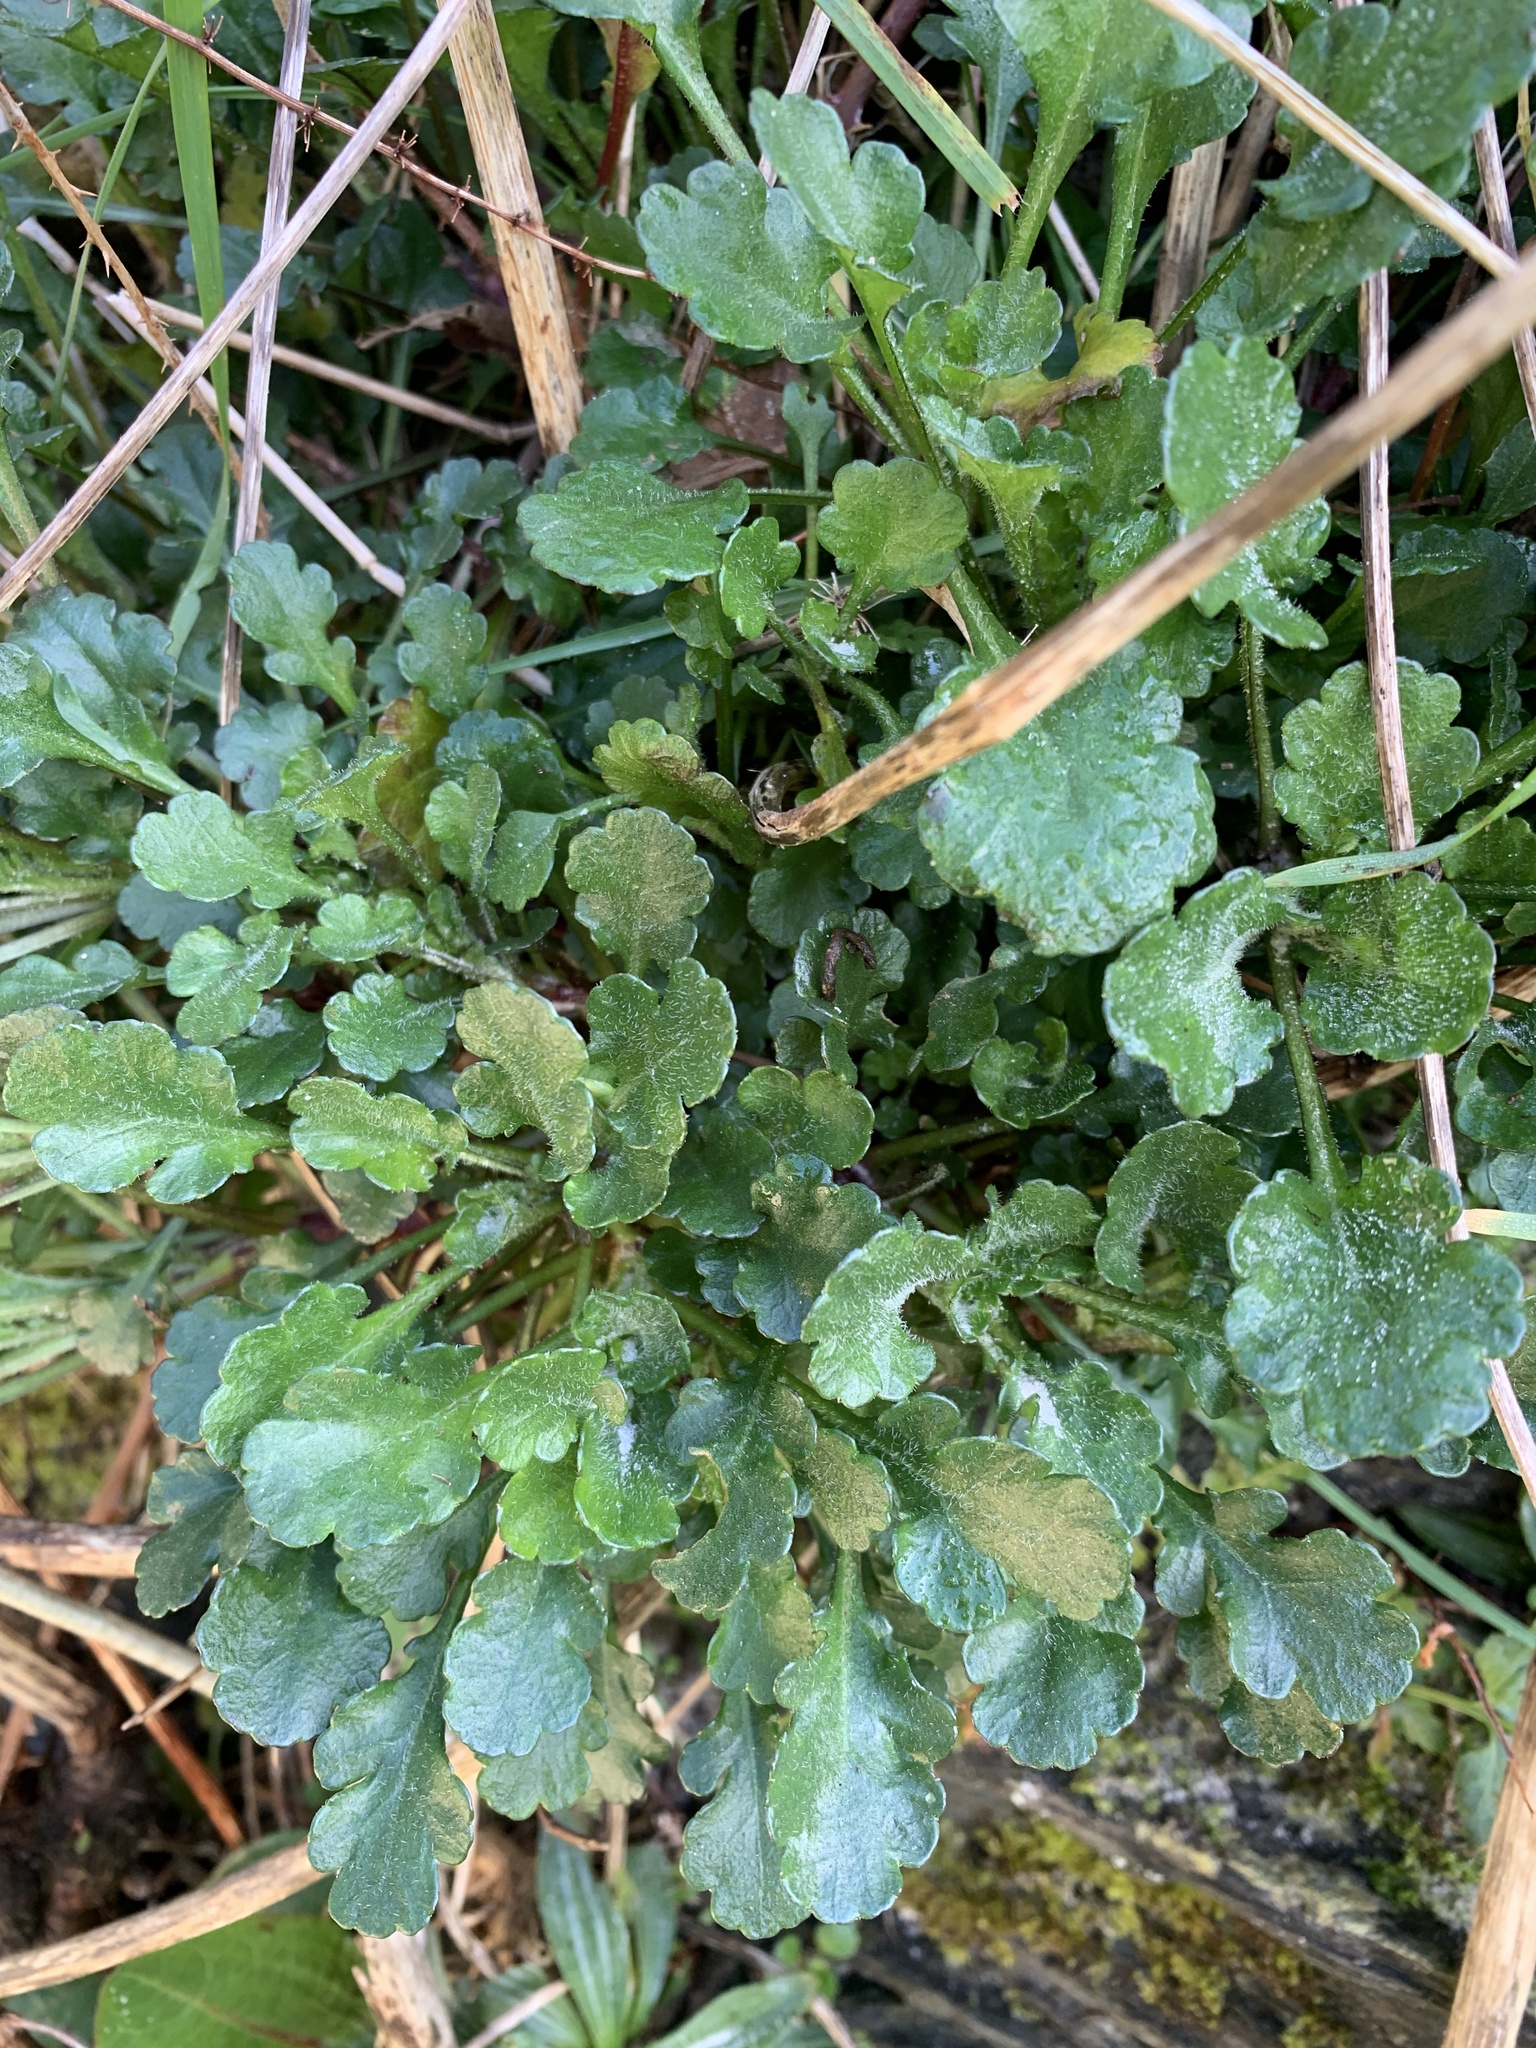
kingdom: Plantae
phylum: Tracheophyta
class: Magnoliopsida
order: Asterales
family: Asteraceae
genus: Leucanthemum
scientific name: Leucanthemum vulgare
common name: Oxeye daisy
